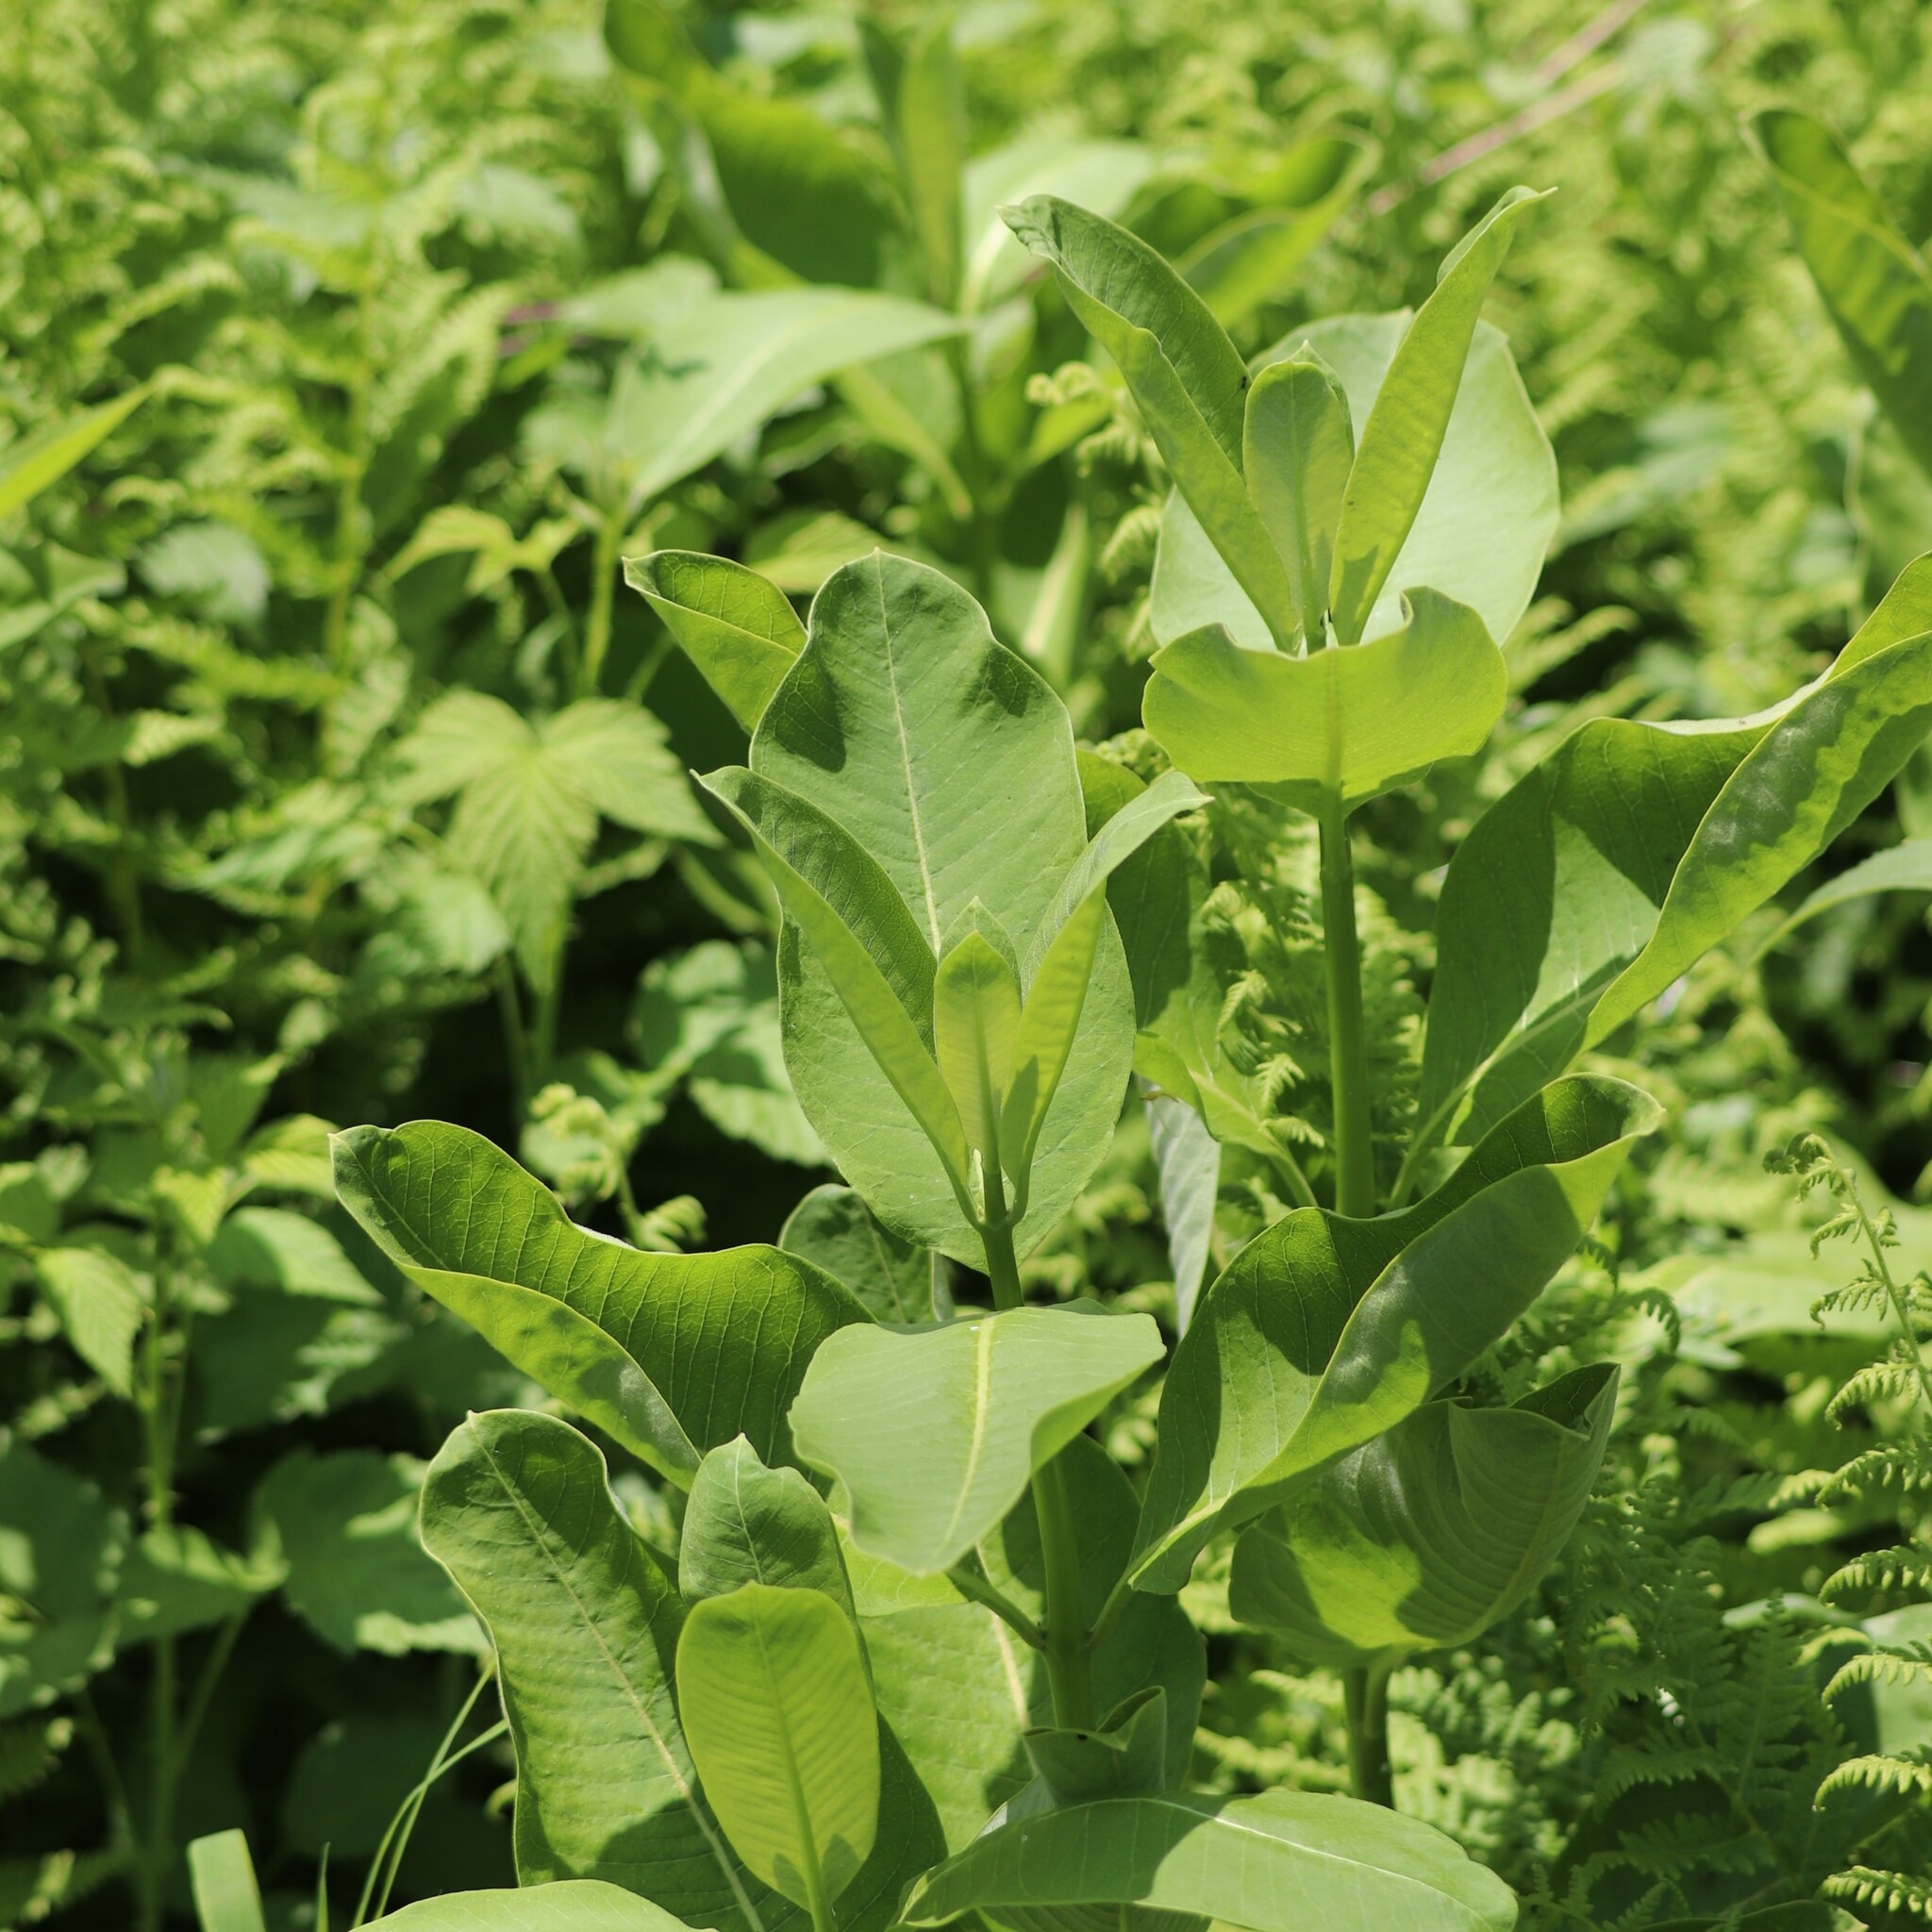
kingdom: Plantae
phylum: Tracheophyta
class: Magnoliopsida
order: Gentianales
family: Apocynaceae
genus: Asclepias
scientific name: Asclepias syriaca
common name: Common milkweed
